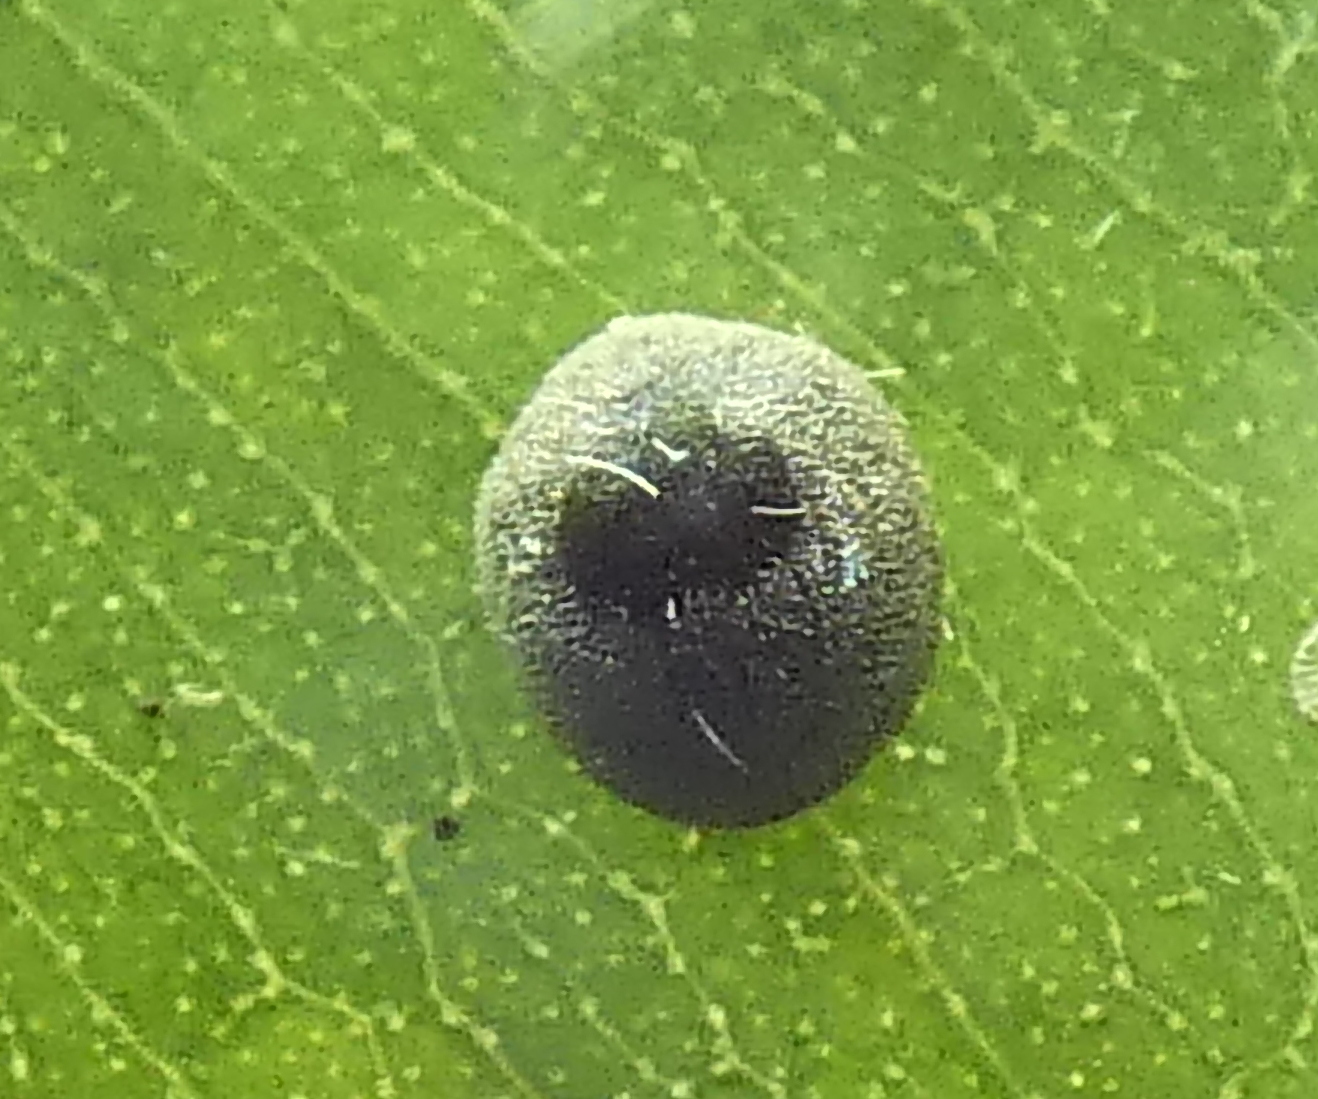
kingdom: Animalia
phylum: Arthropoda
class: Insecta
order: Coleoptera
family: Coccinellidae
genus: Azya
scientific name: Azya
